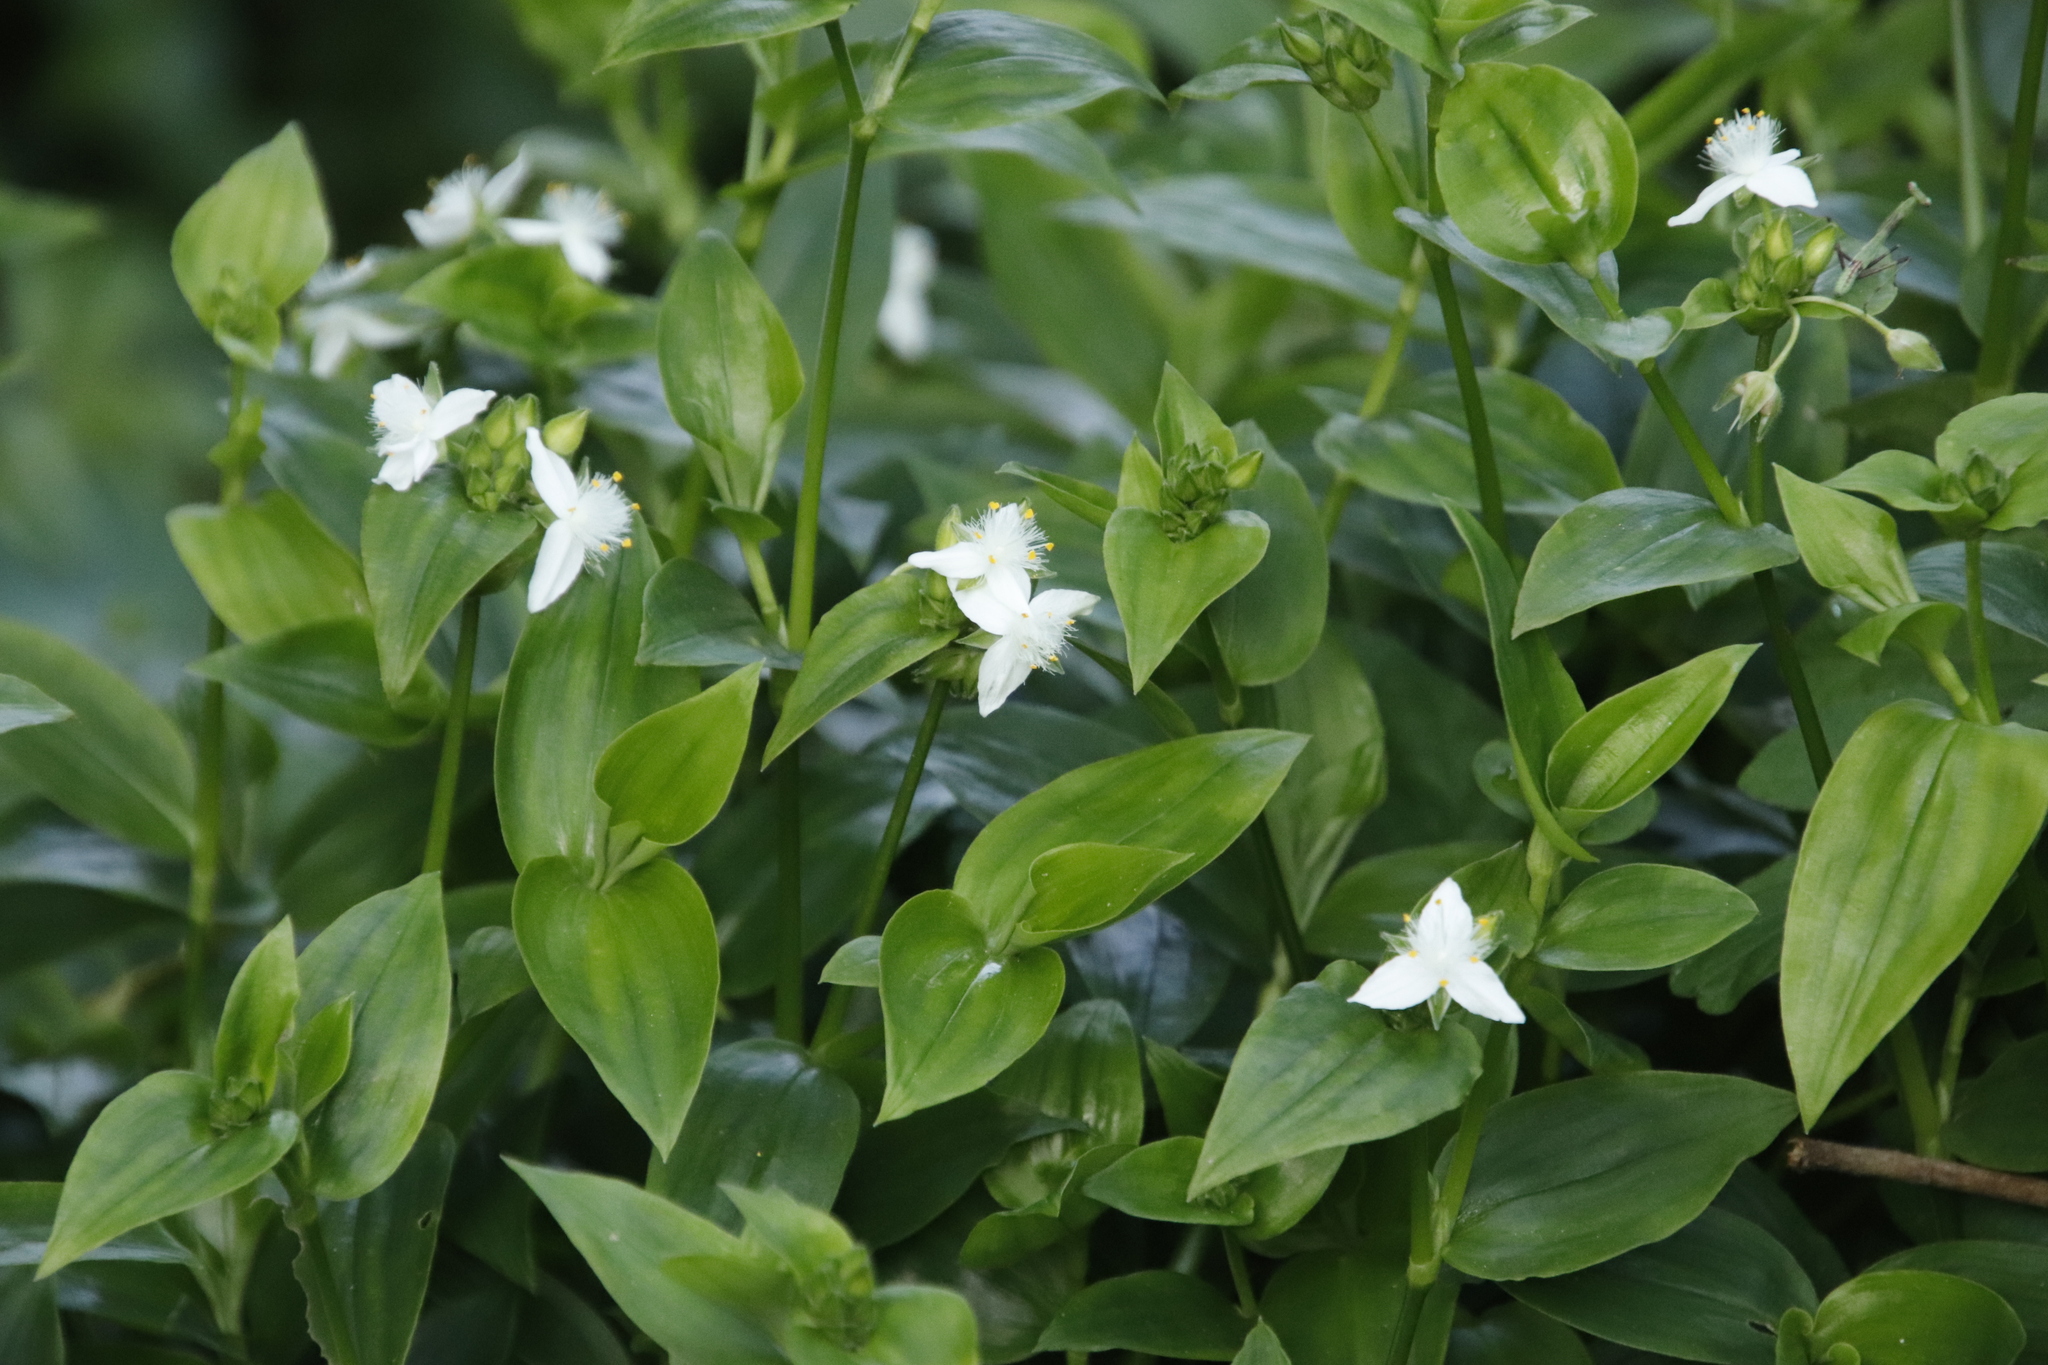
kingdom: Plantae
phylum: Tracheophyta
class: Liliopsida
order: Commelinales
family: Commelinaceae
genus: Tradescantia
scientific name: Tradescantia fluminensis
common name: Wandering-jew
